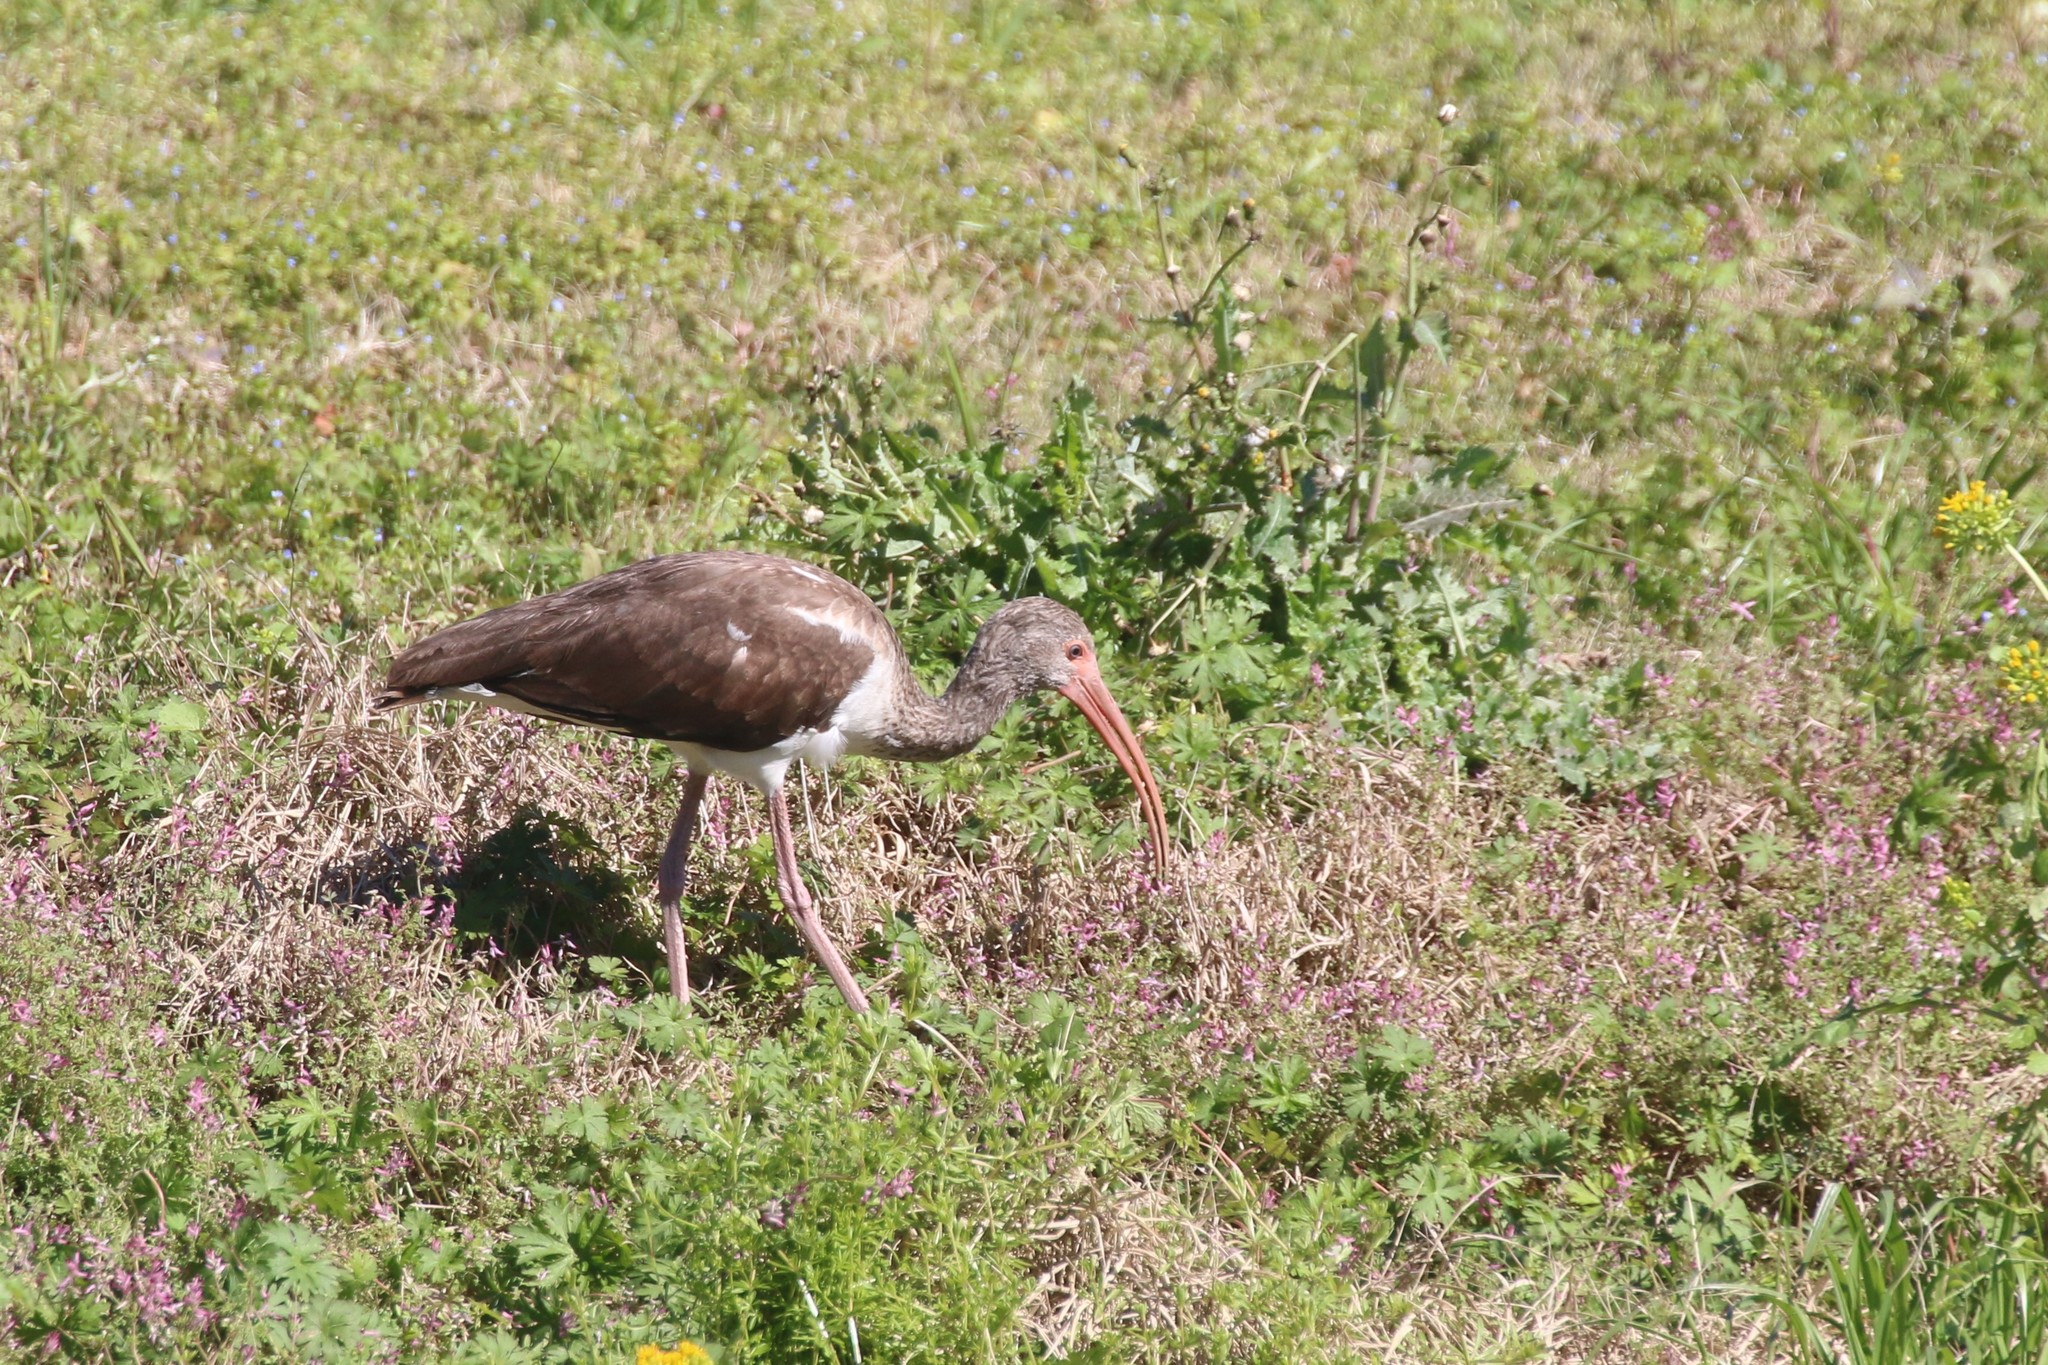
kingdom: Animalia
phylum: Chordata
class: Aves
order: Pelecaniformes
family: Threskiornithidae
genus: Eudocimus
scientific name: Eudocimus albus
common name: White ibis
